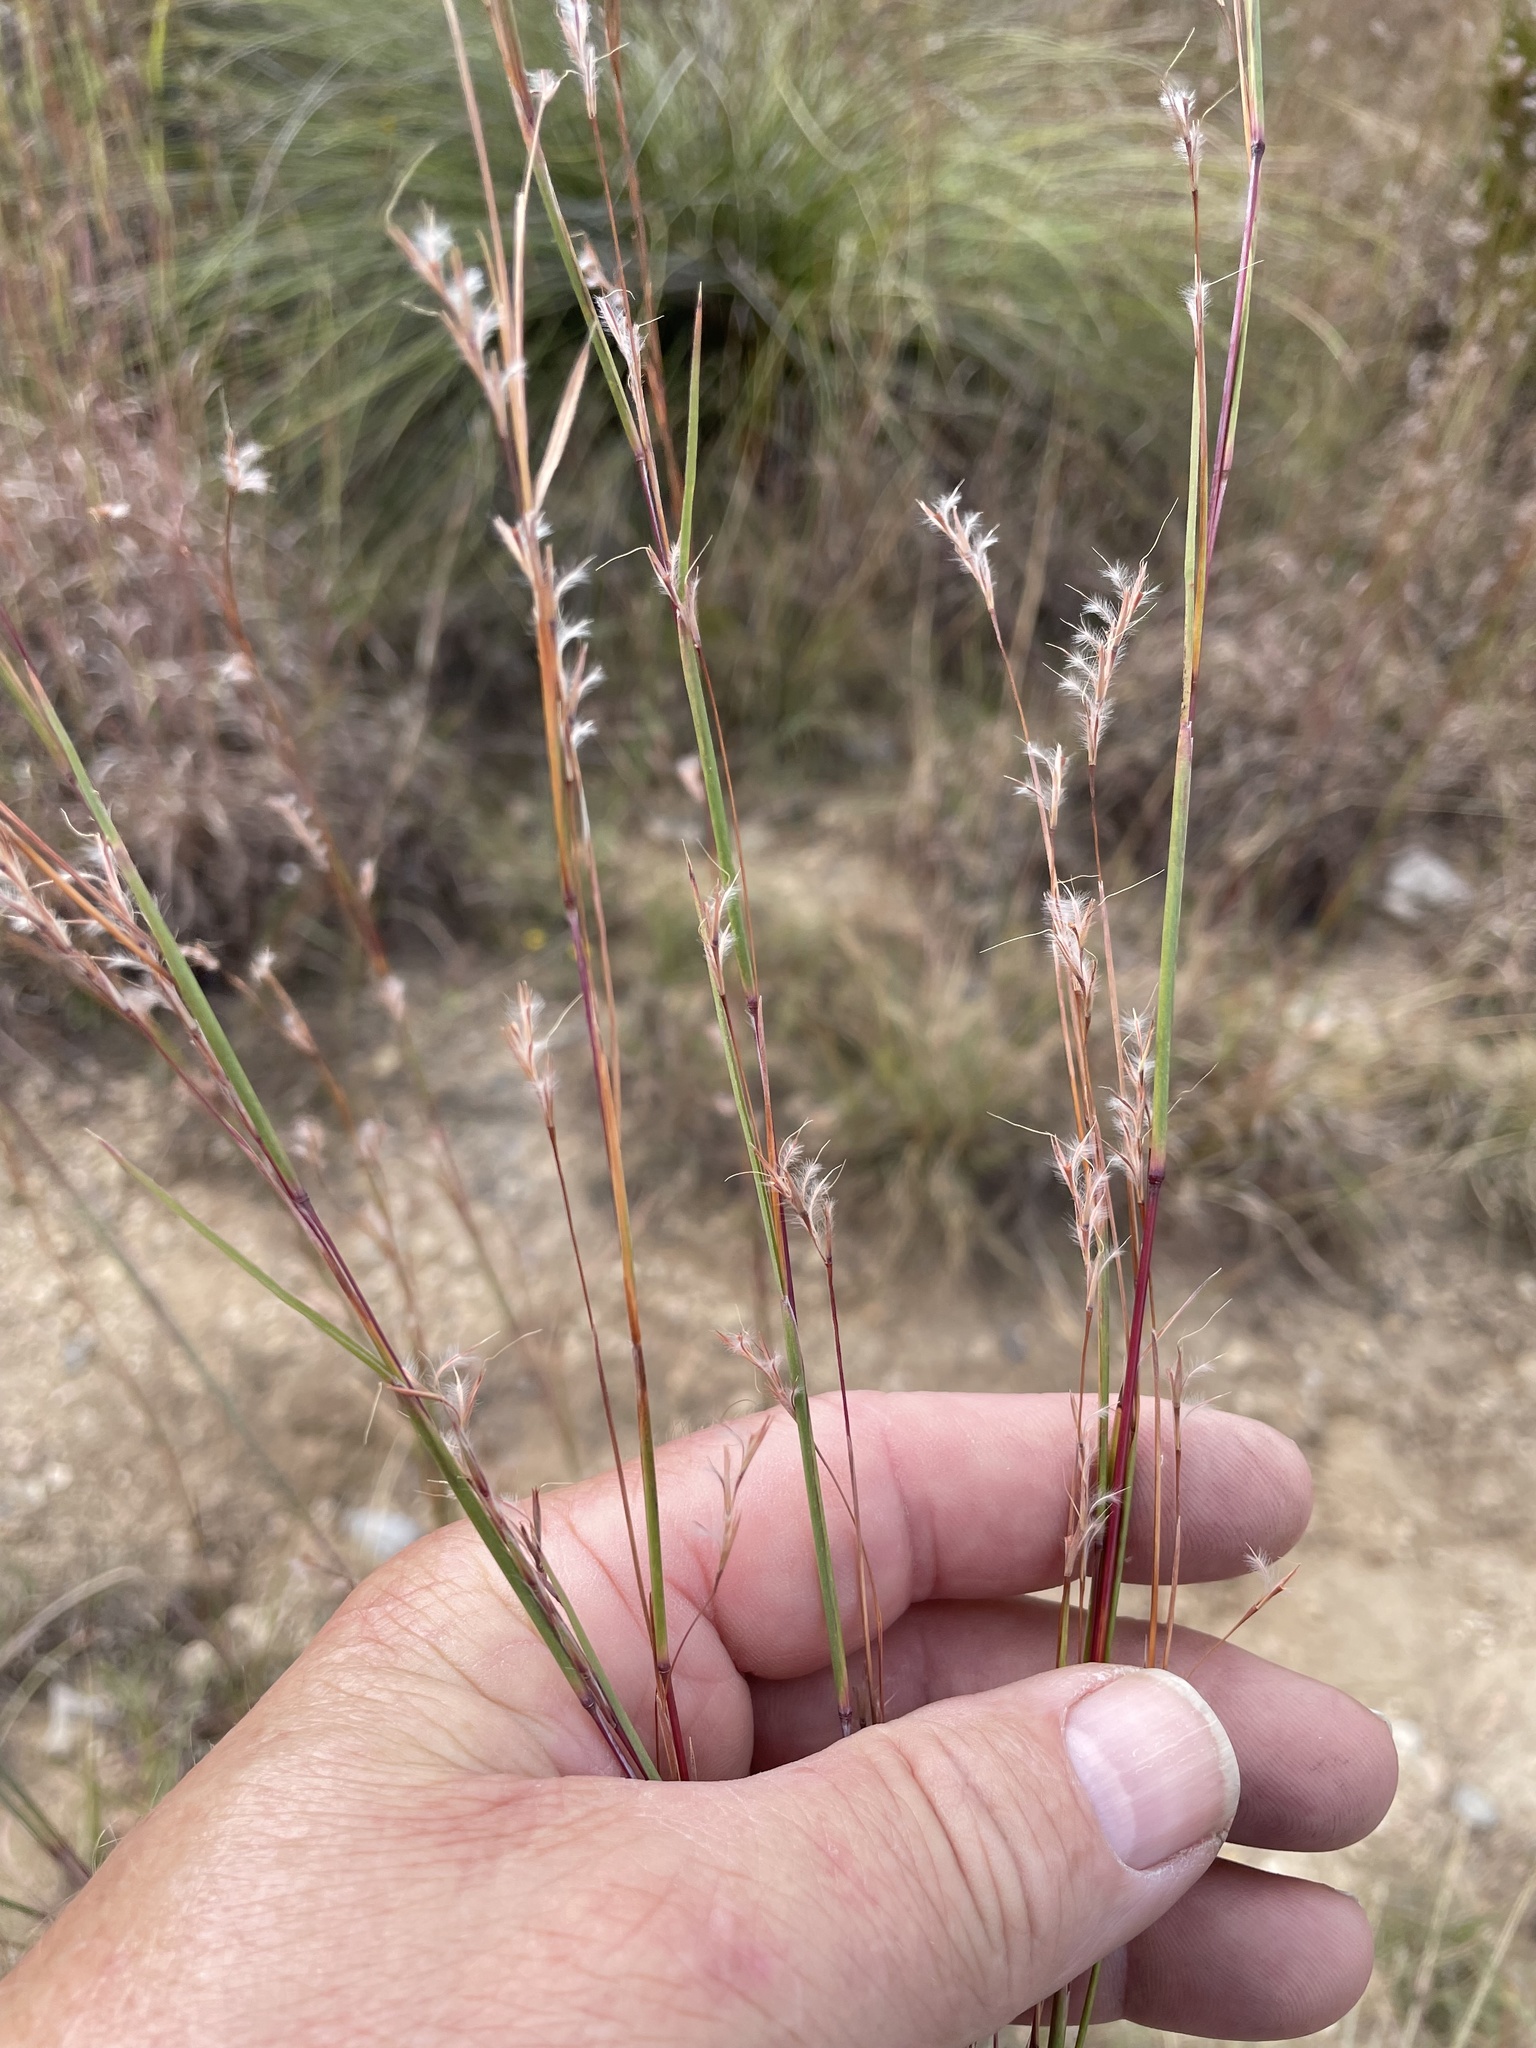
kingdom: Plantae
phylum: Tracheophyta
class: Liliopsida
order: Poales
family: Poaceae
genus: Schizachyrium
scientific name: Schizachyrium scoparium
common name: Little bluestem
